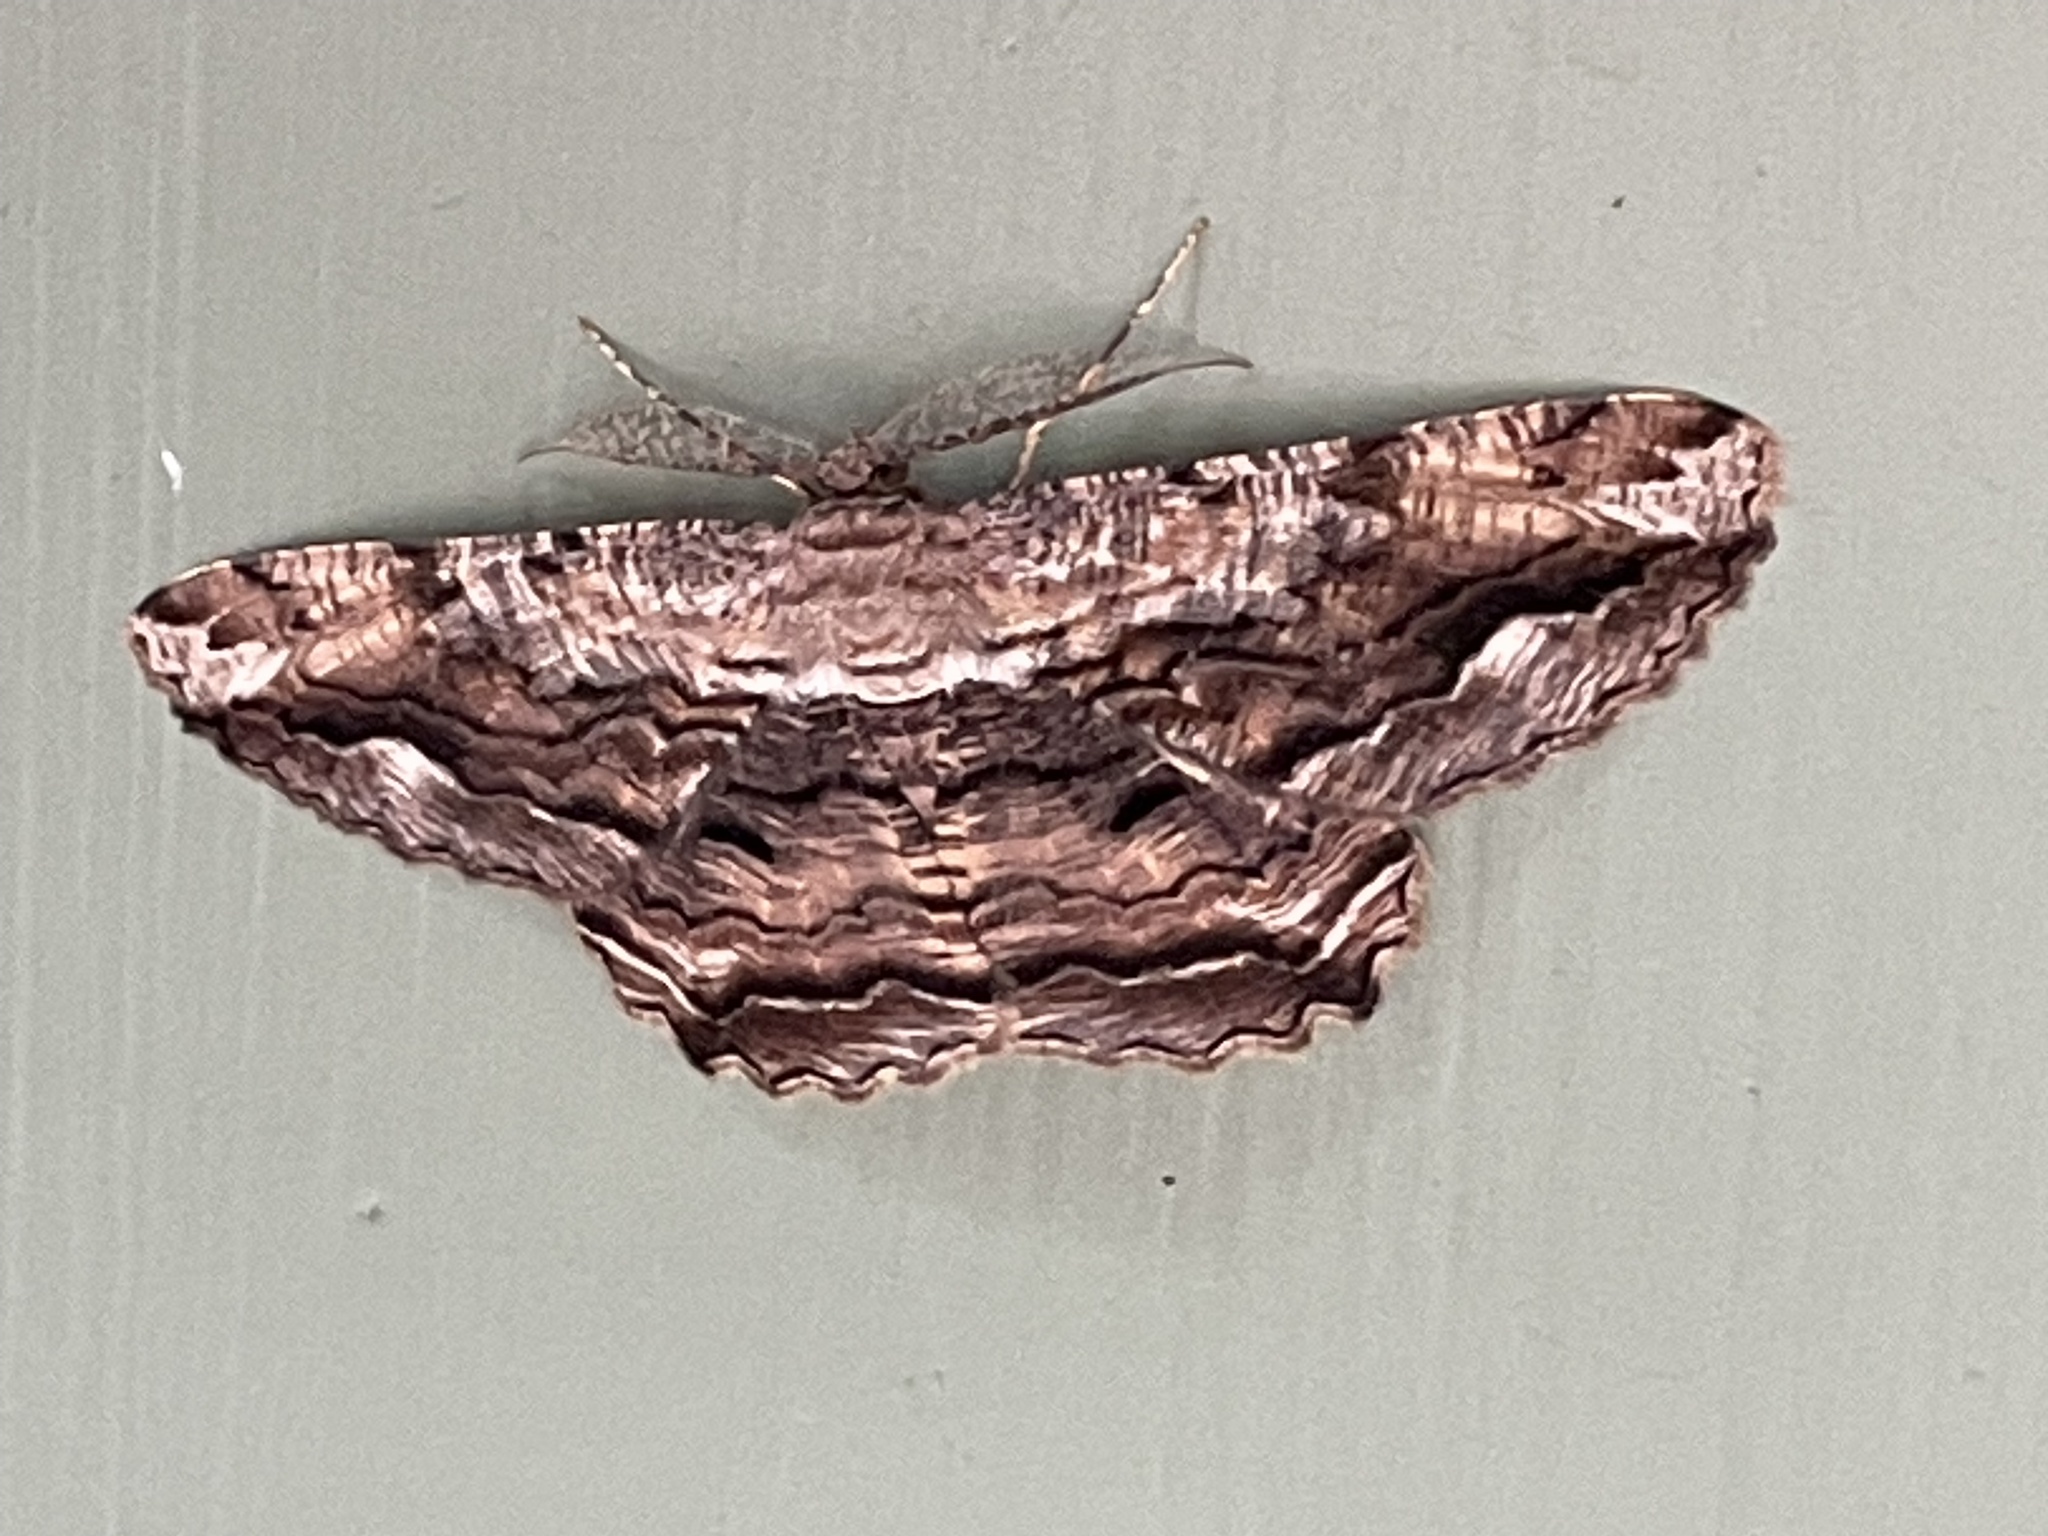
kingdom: Animalia
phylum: Arthropoda
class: Insecta
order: Lepidoptera
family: Geometridae
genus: Scioglyptis
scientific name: Scioglyptis lyciaria
